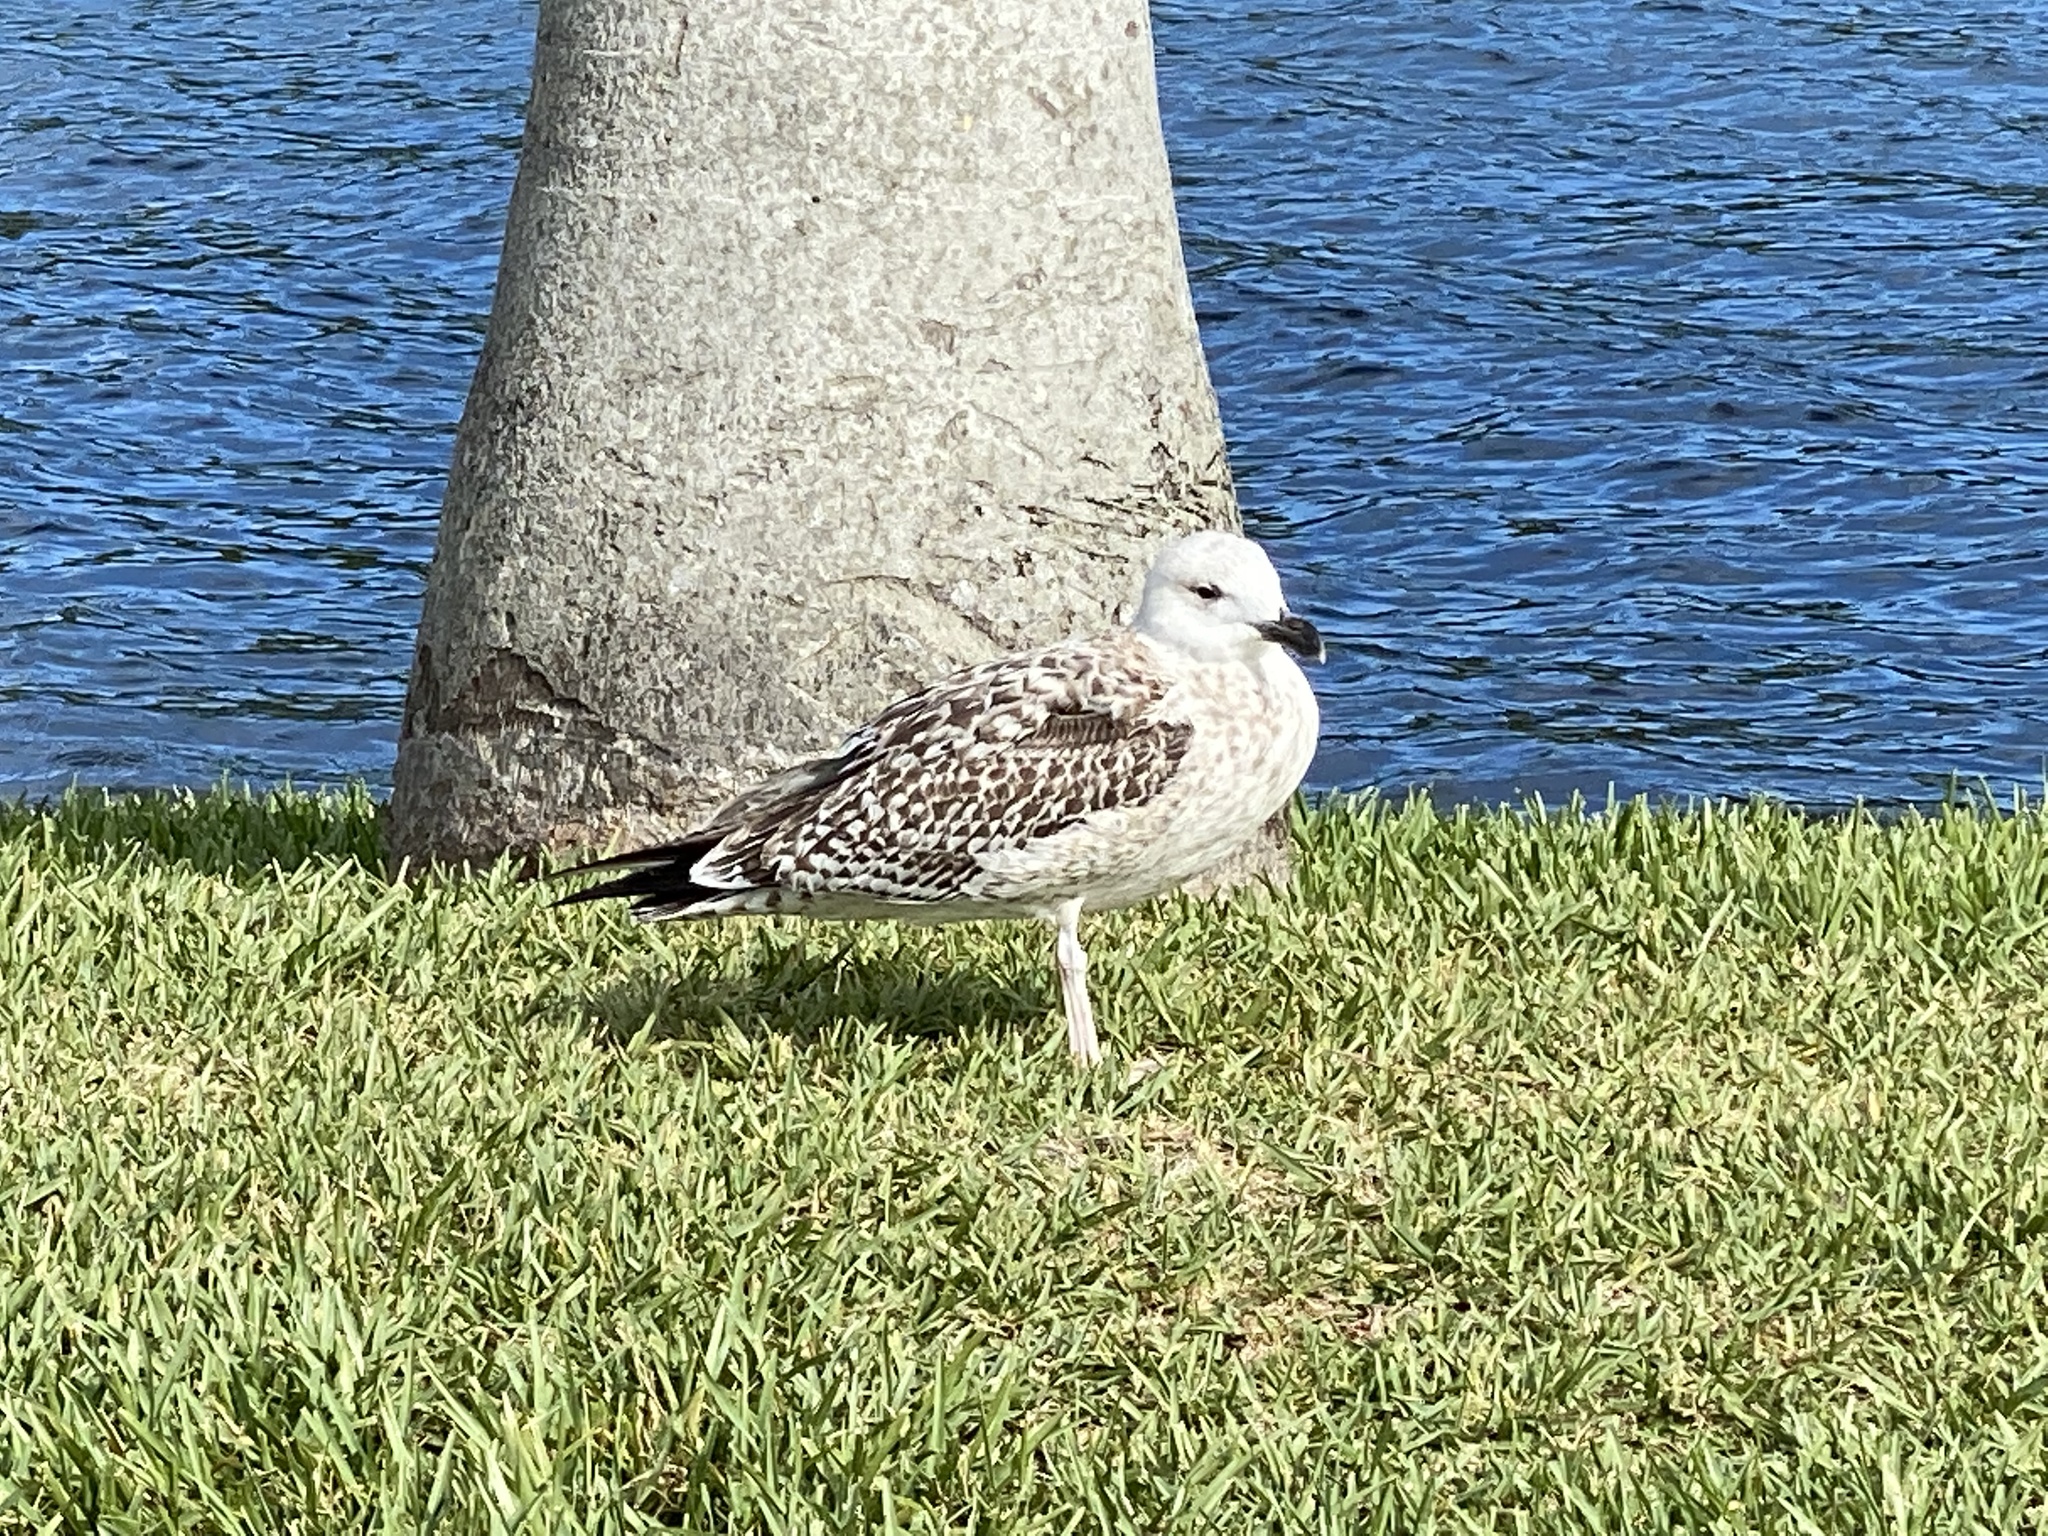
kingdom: Animalia
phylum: Chordata
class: Aves
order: Charadriiformes
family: Laridae
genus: Larus
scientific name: Larus marinus
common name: Great black-backed gull
